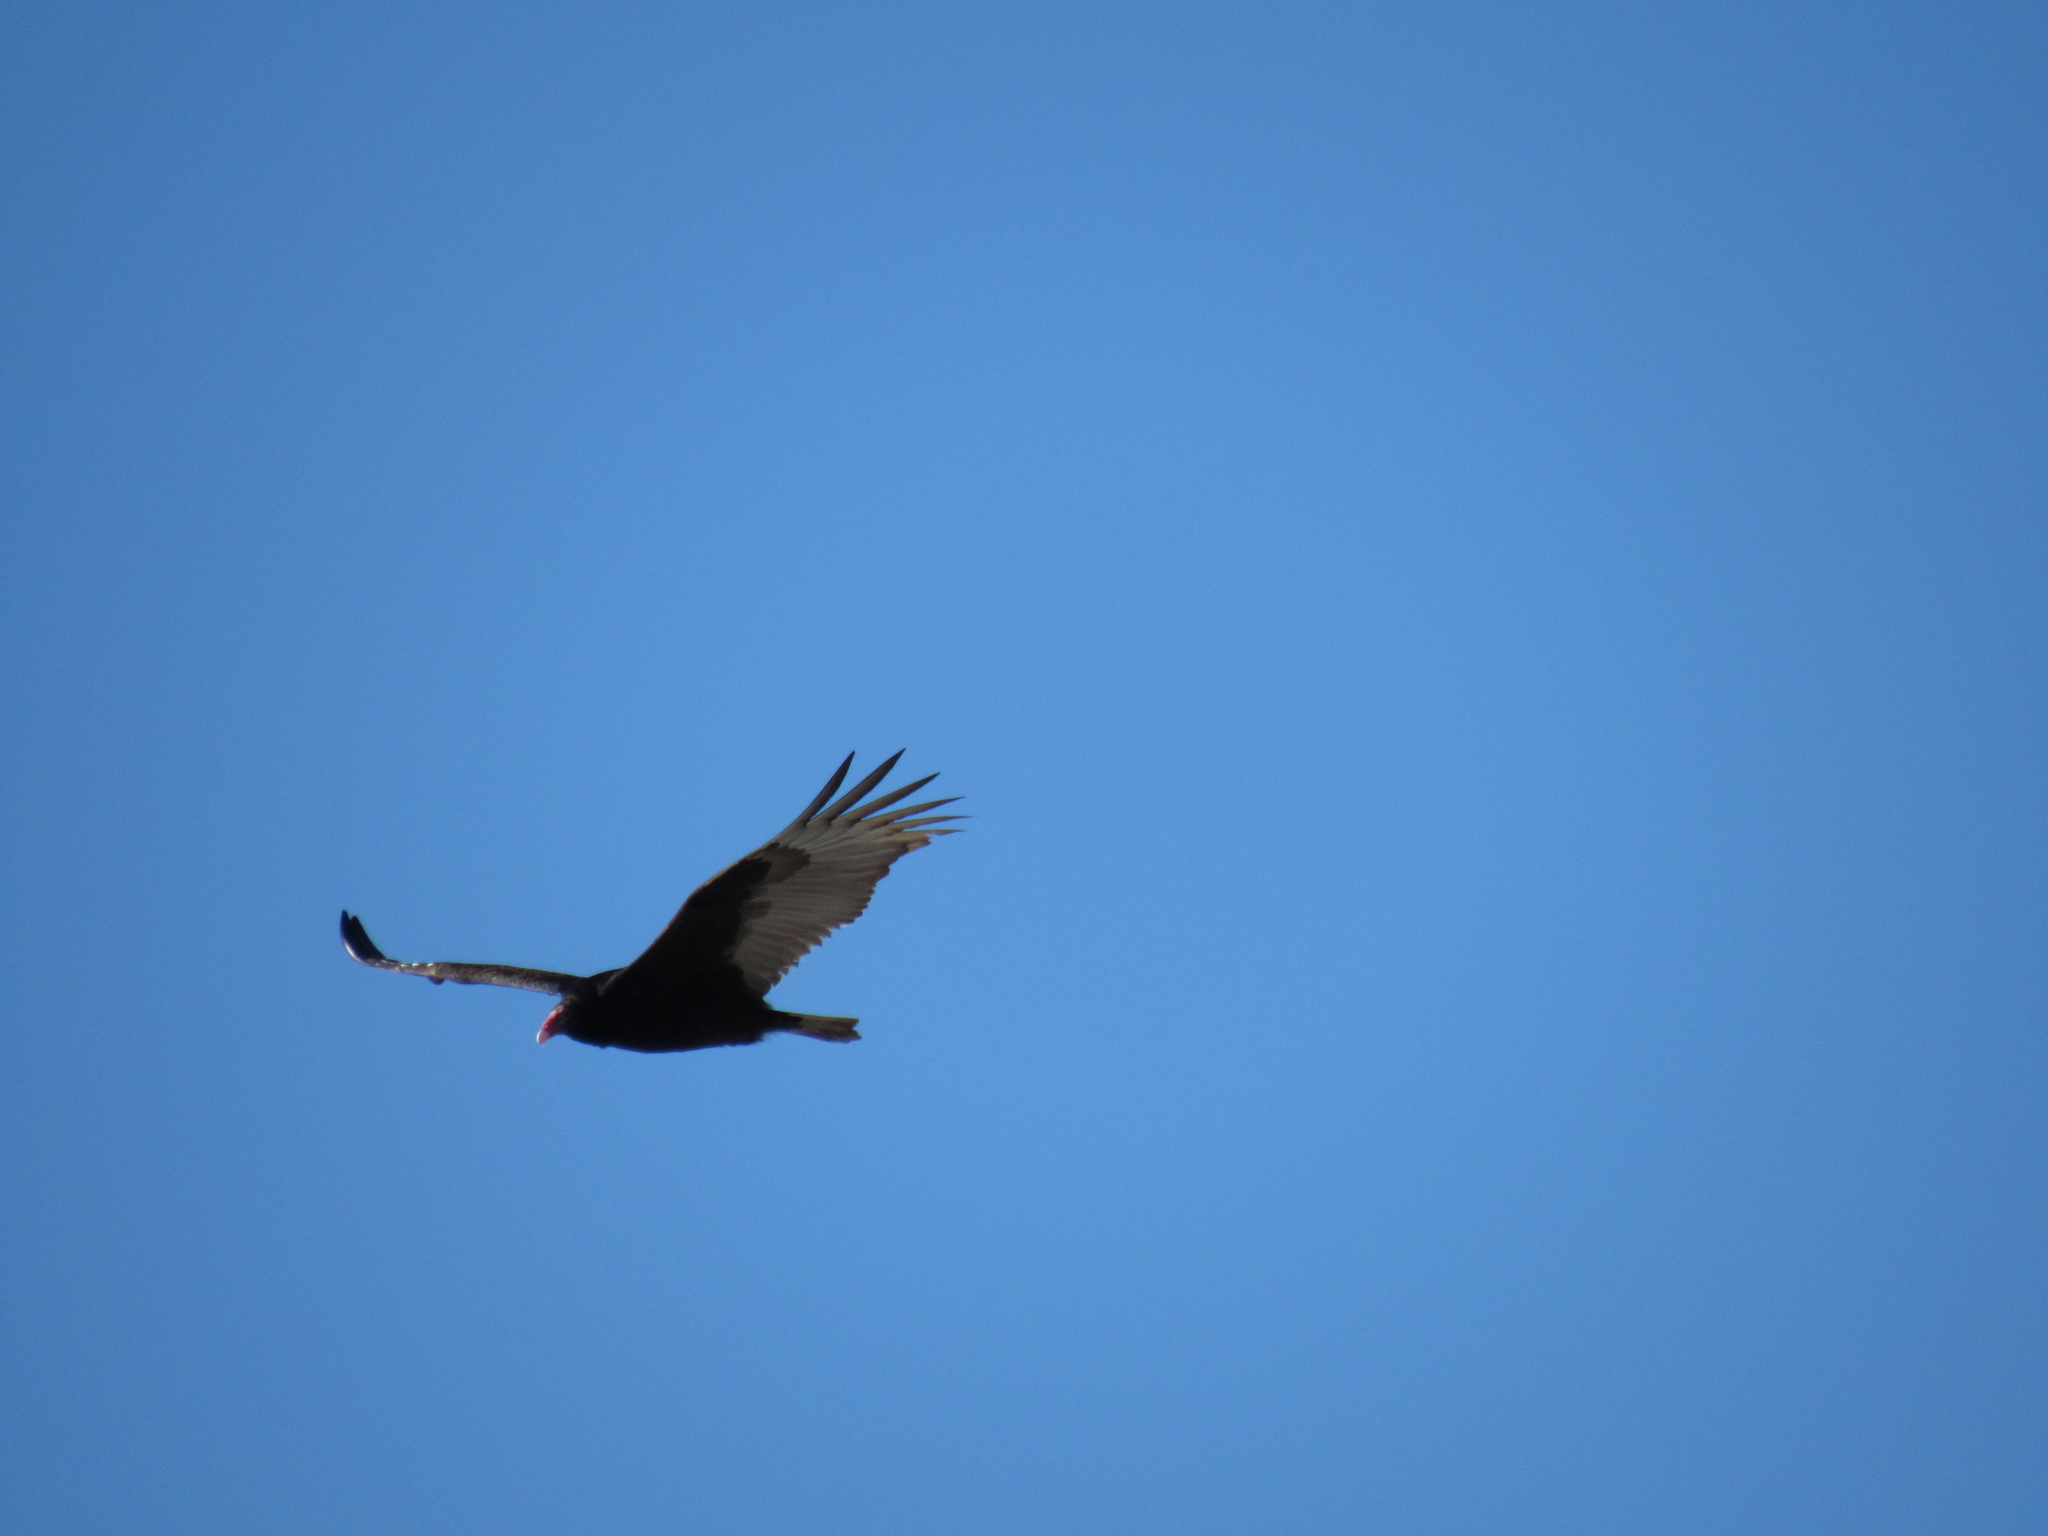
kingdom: Animalia
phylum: Chordata
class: Aves
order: Accipitriformes
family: Cathartidae
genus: Cathartes
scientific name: Cathartes aura
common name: Turkey vulture
